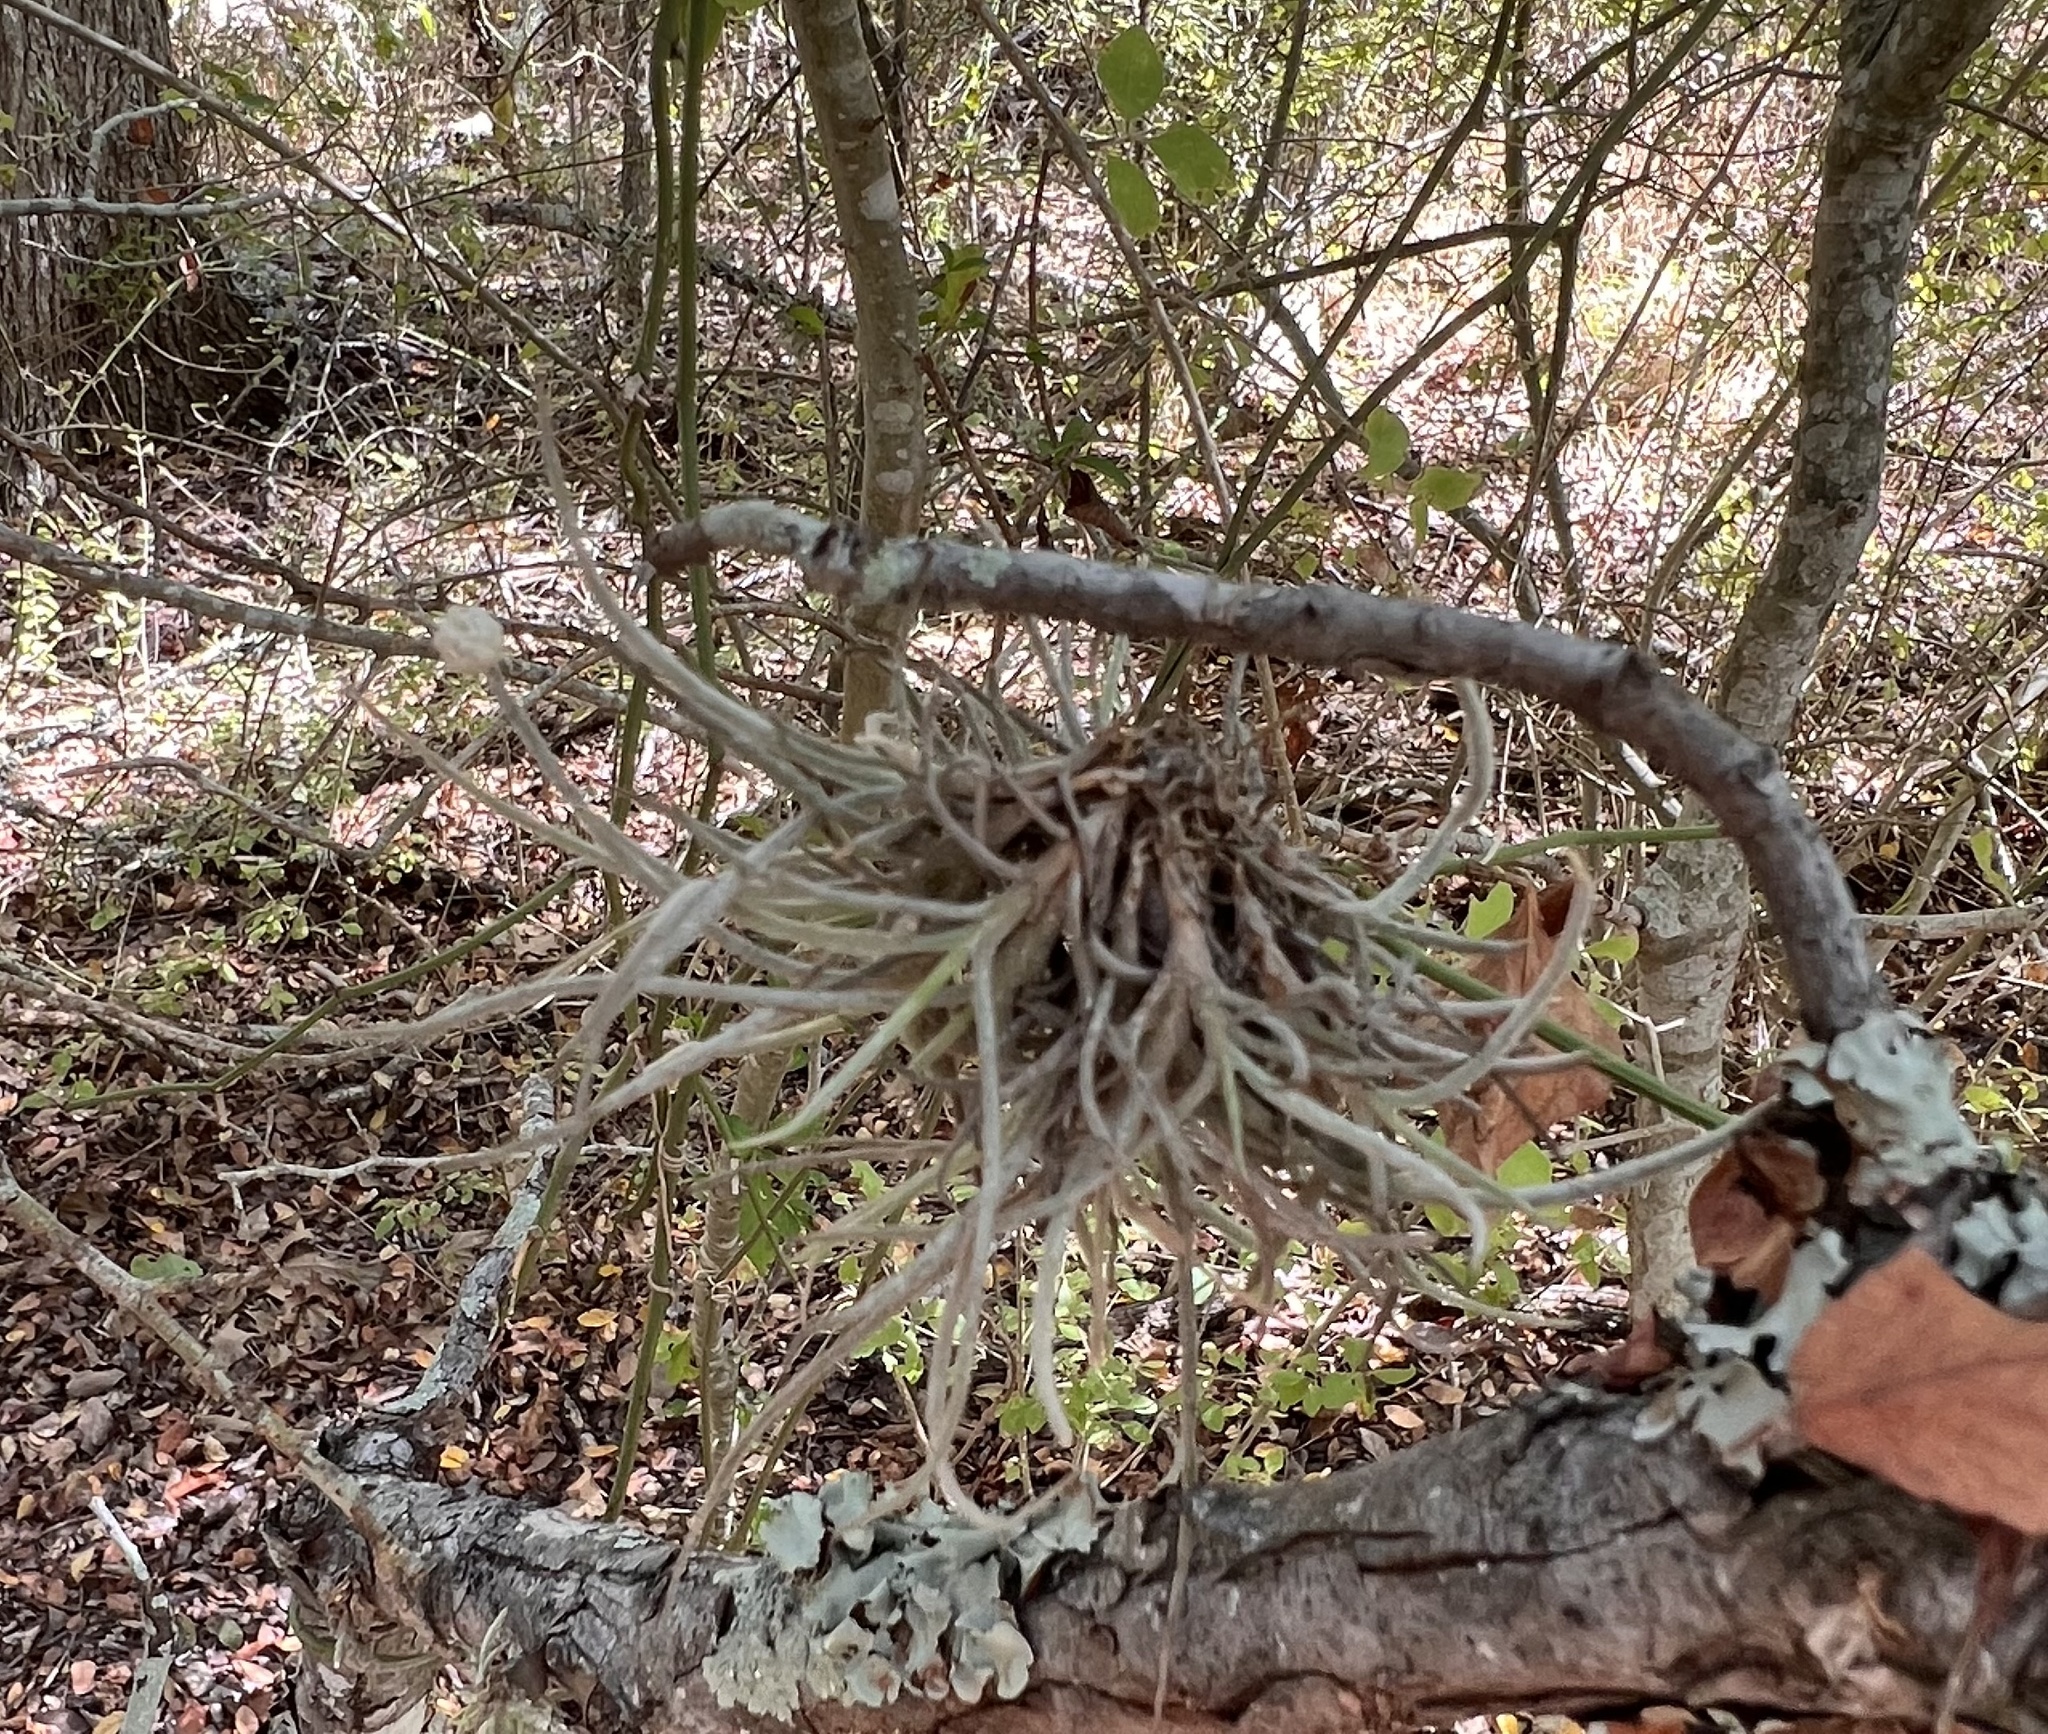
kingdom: Plantae
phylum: Tracheophyta
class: Liliopsida
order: Poales
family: Bromeliaceae
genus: Tillandsia
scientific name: Tillandsia recurvata
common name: Small ballmoss
